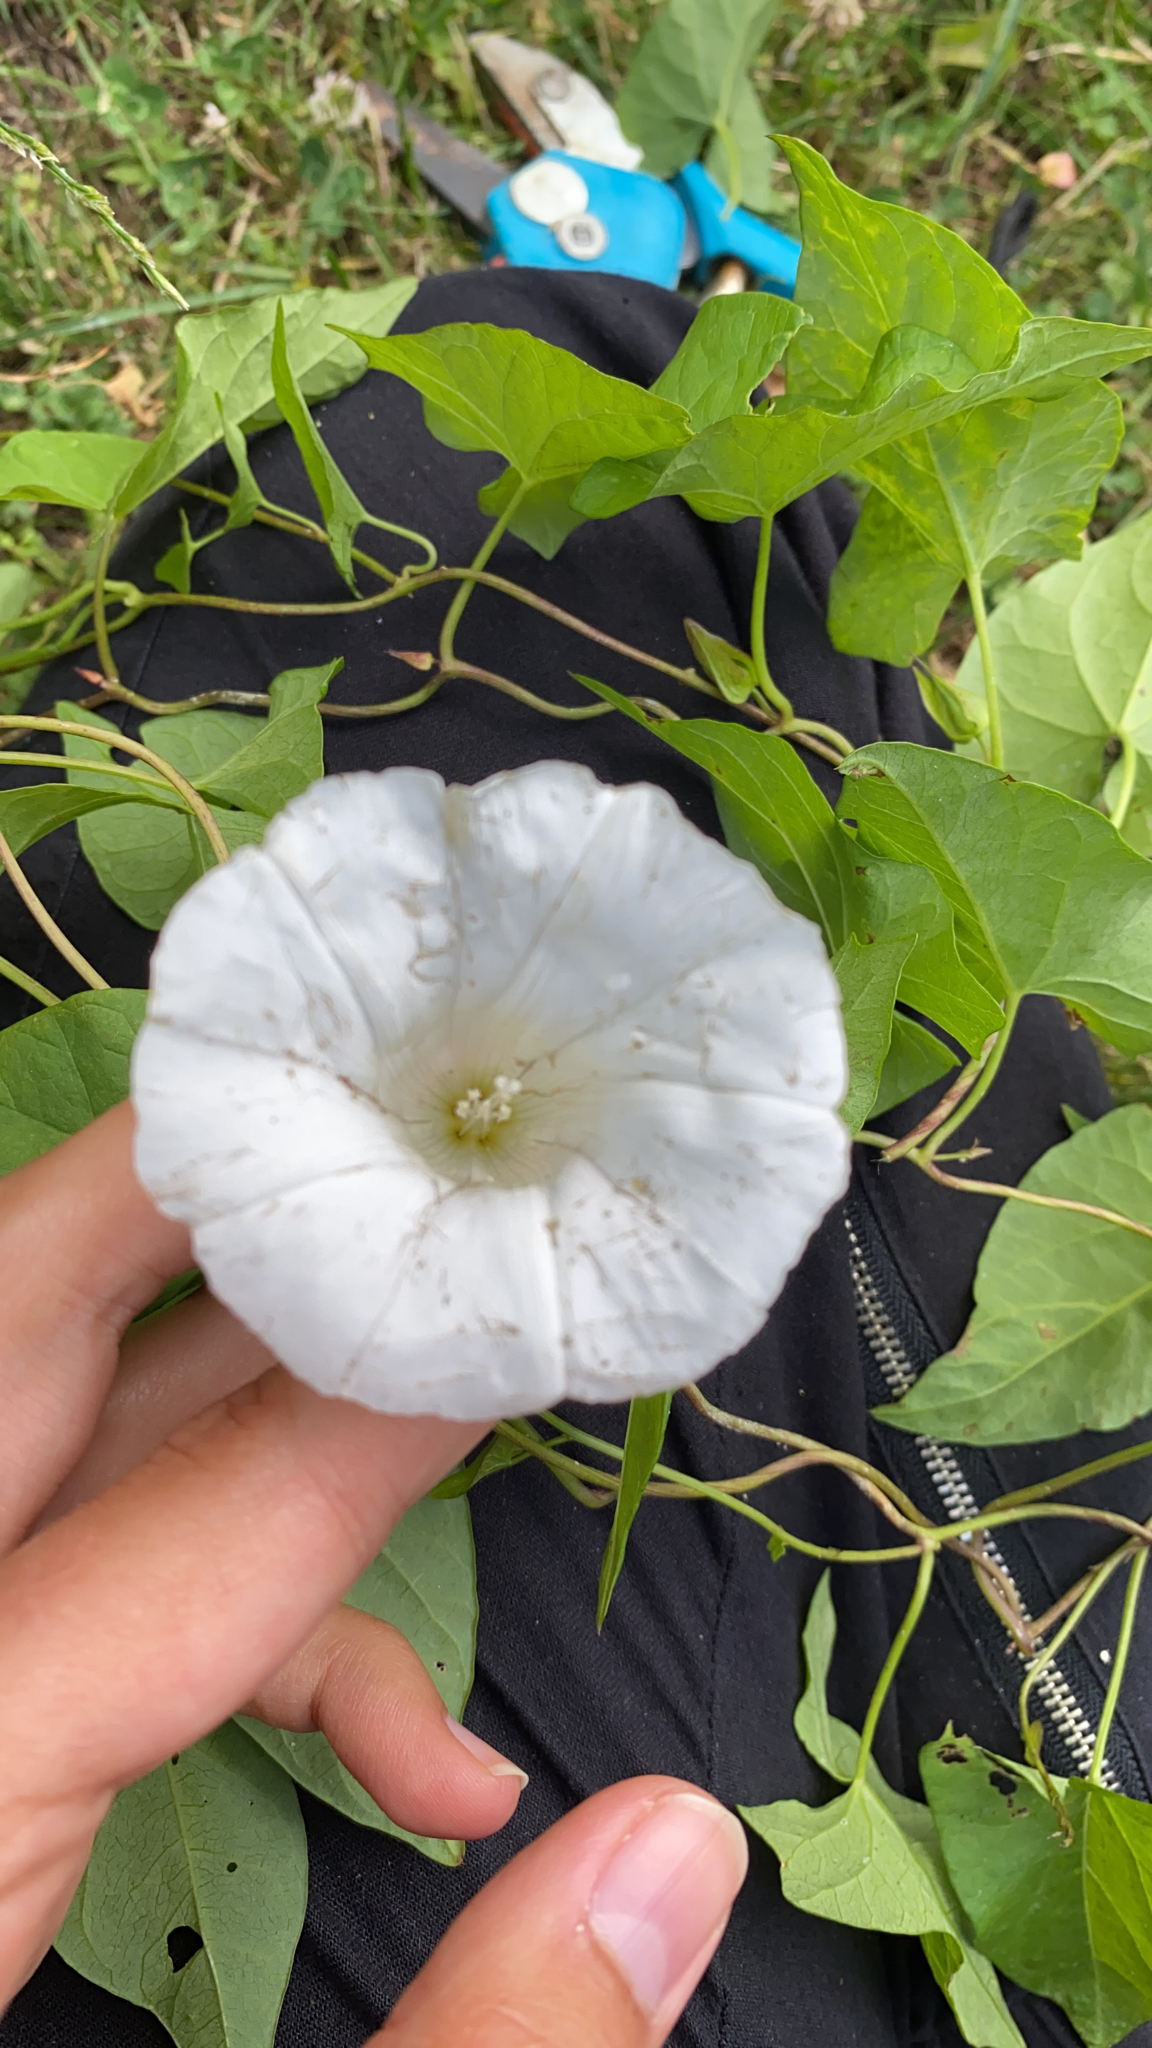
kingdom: Plantae
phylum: Tracheophyta
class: Magnoliopsida
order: Solanales
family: Convolvulaceae
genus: Calystegia
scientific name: Calystegia sepium
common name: Hedge bindweed
